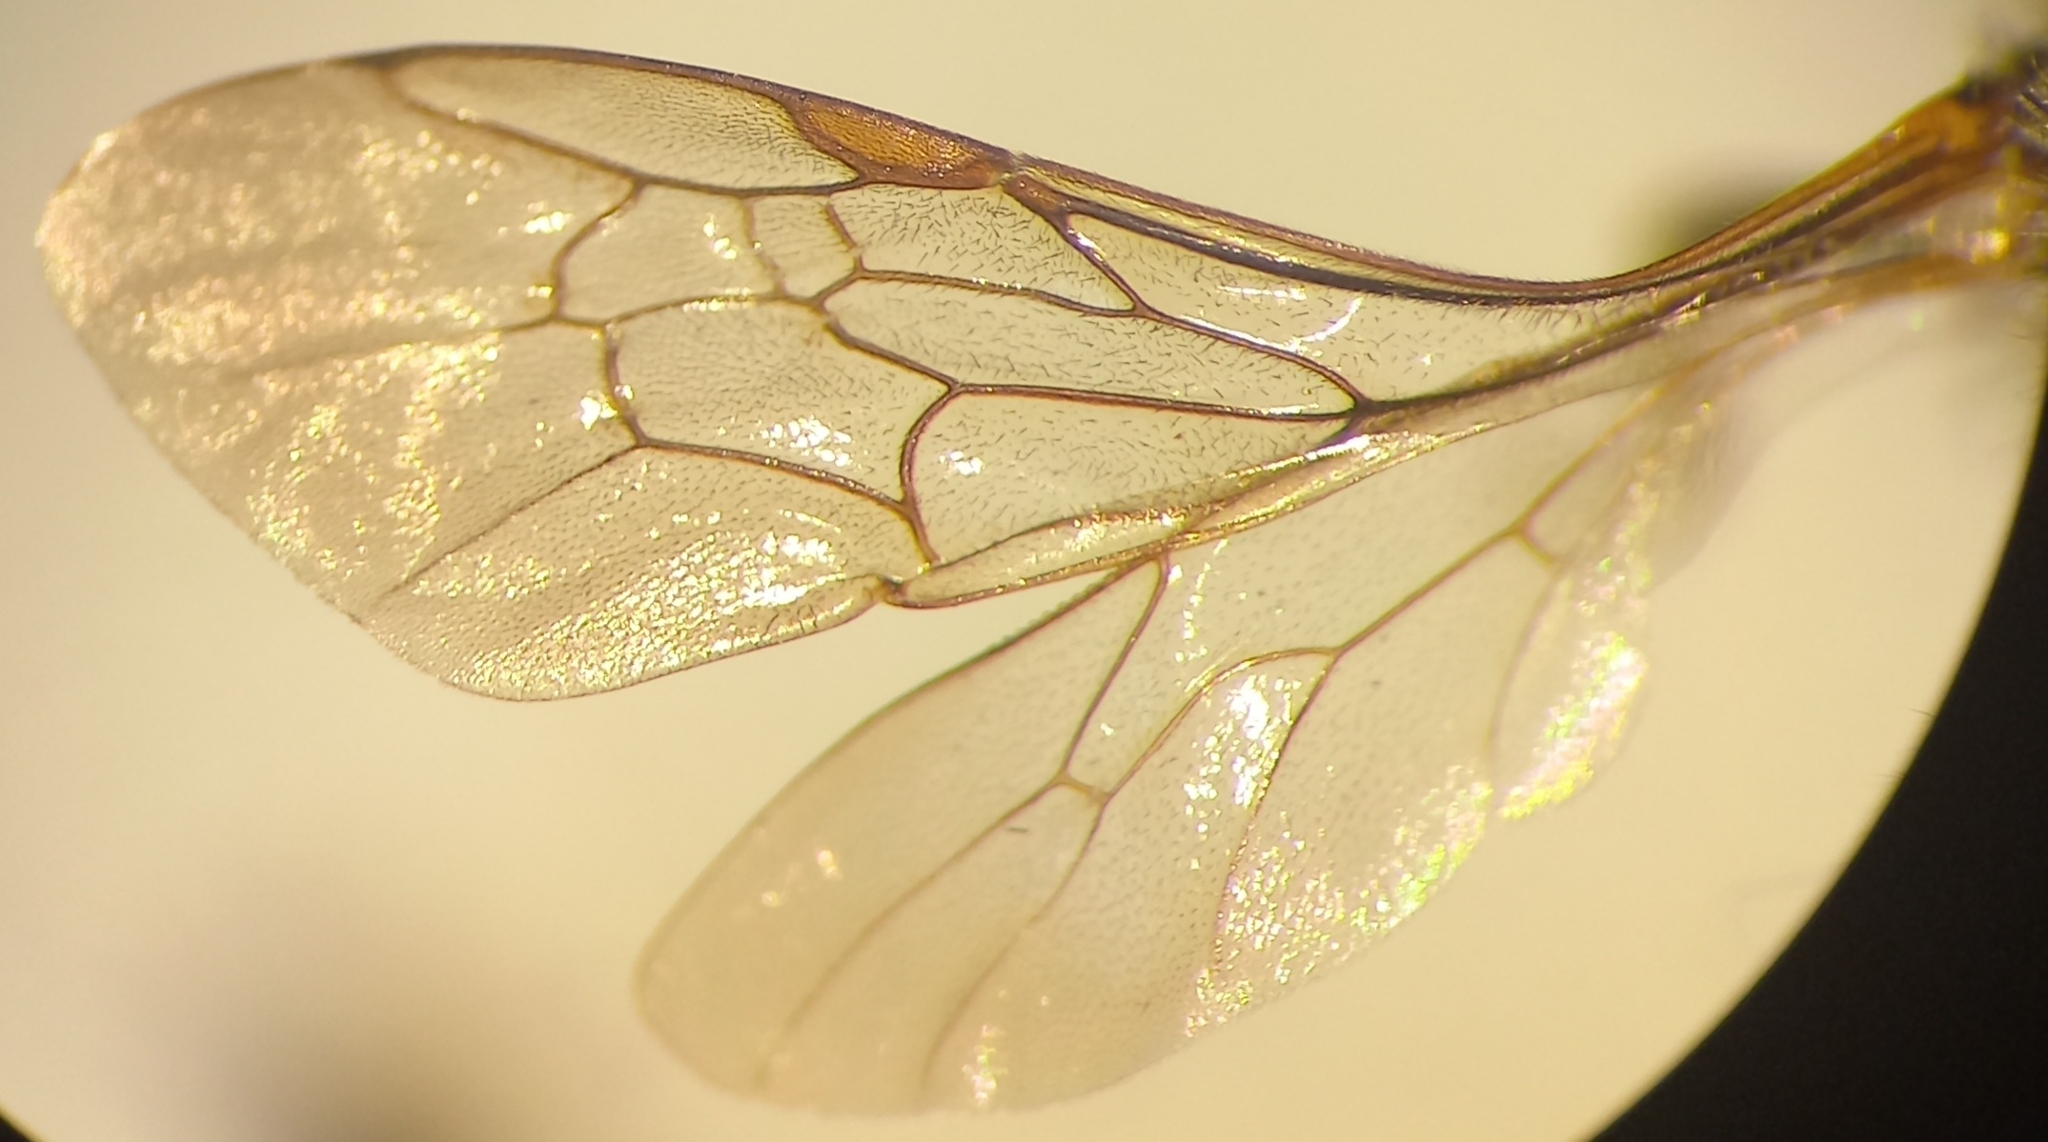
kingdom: Animalia
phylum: Arthropoda
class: Insecta
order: Hymenoptera
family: Andrenidae
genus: Andrena
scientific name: Andrena florea
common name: Bryony mining bee
